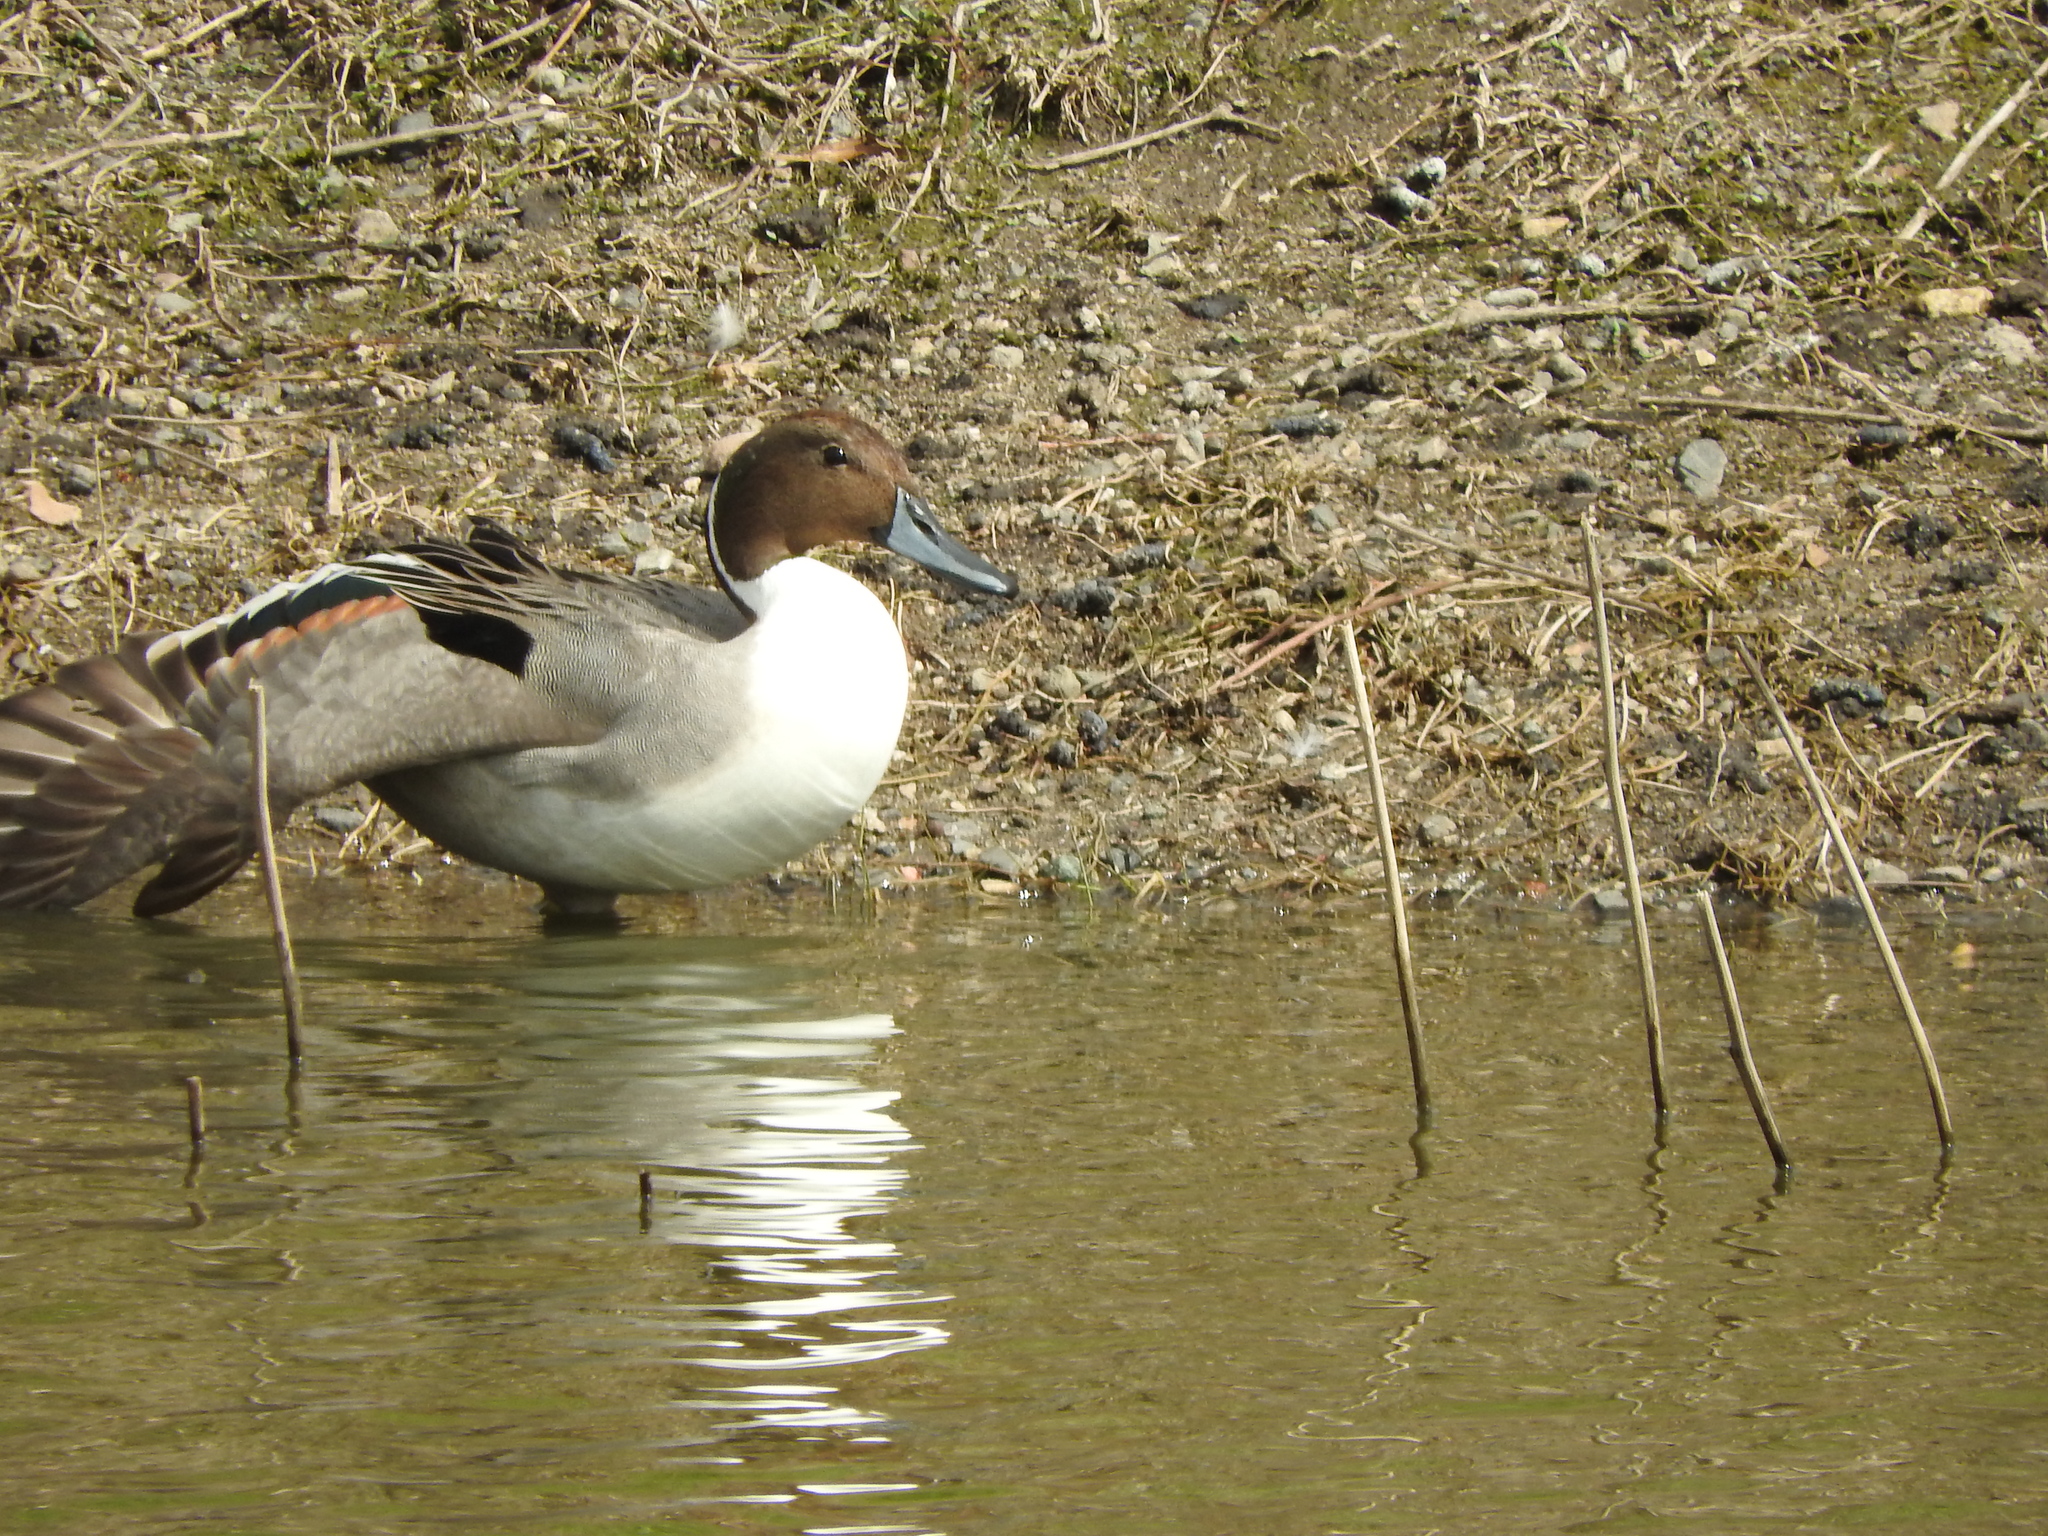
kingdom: Animalia
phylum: Chordata
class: Aves
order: Anseriformes
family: Anatidae
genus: Anas
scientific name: Anas acuta
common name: Northern pintail
